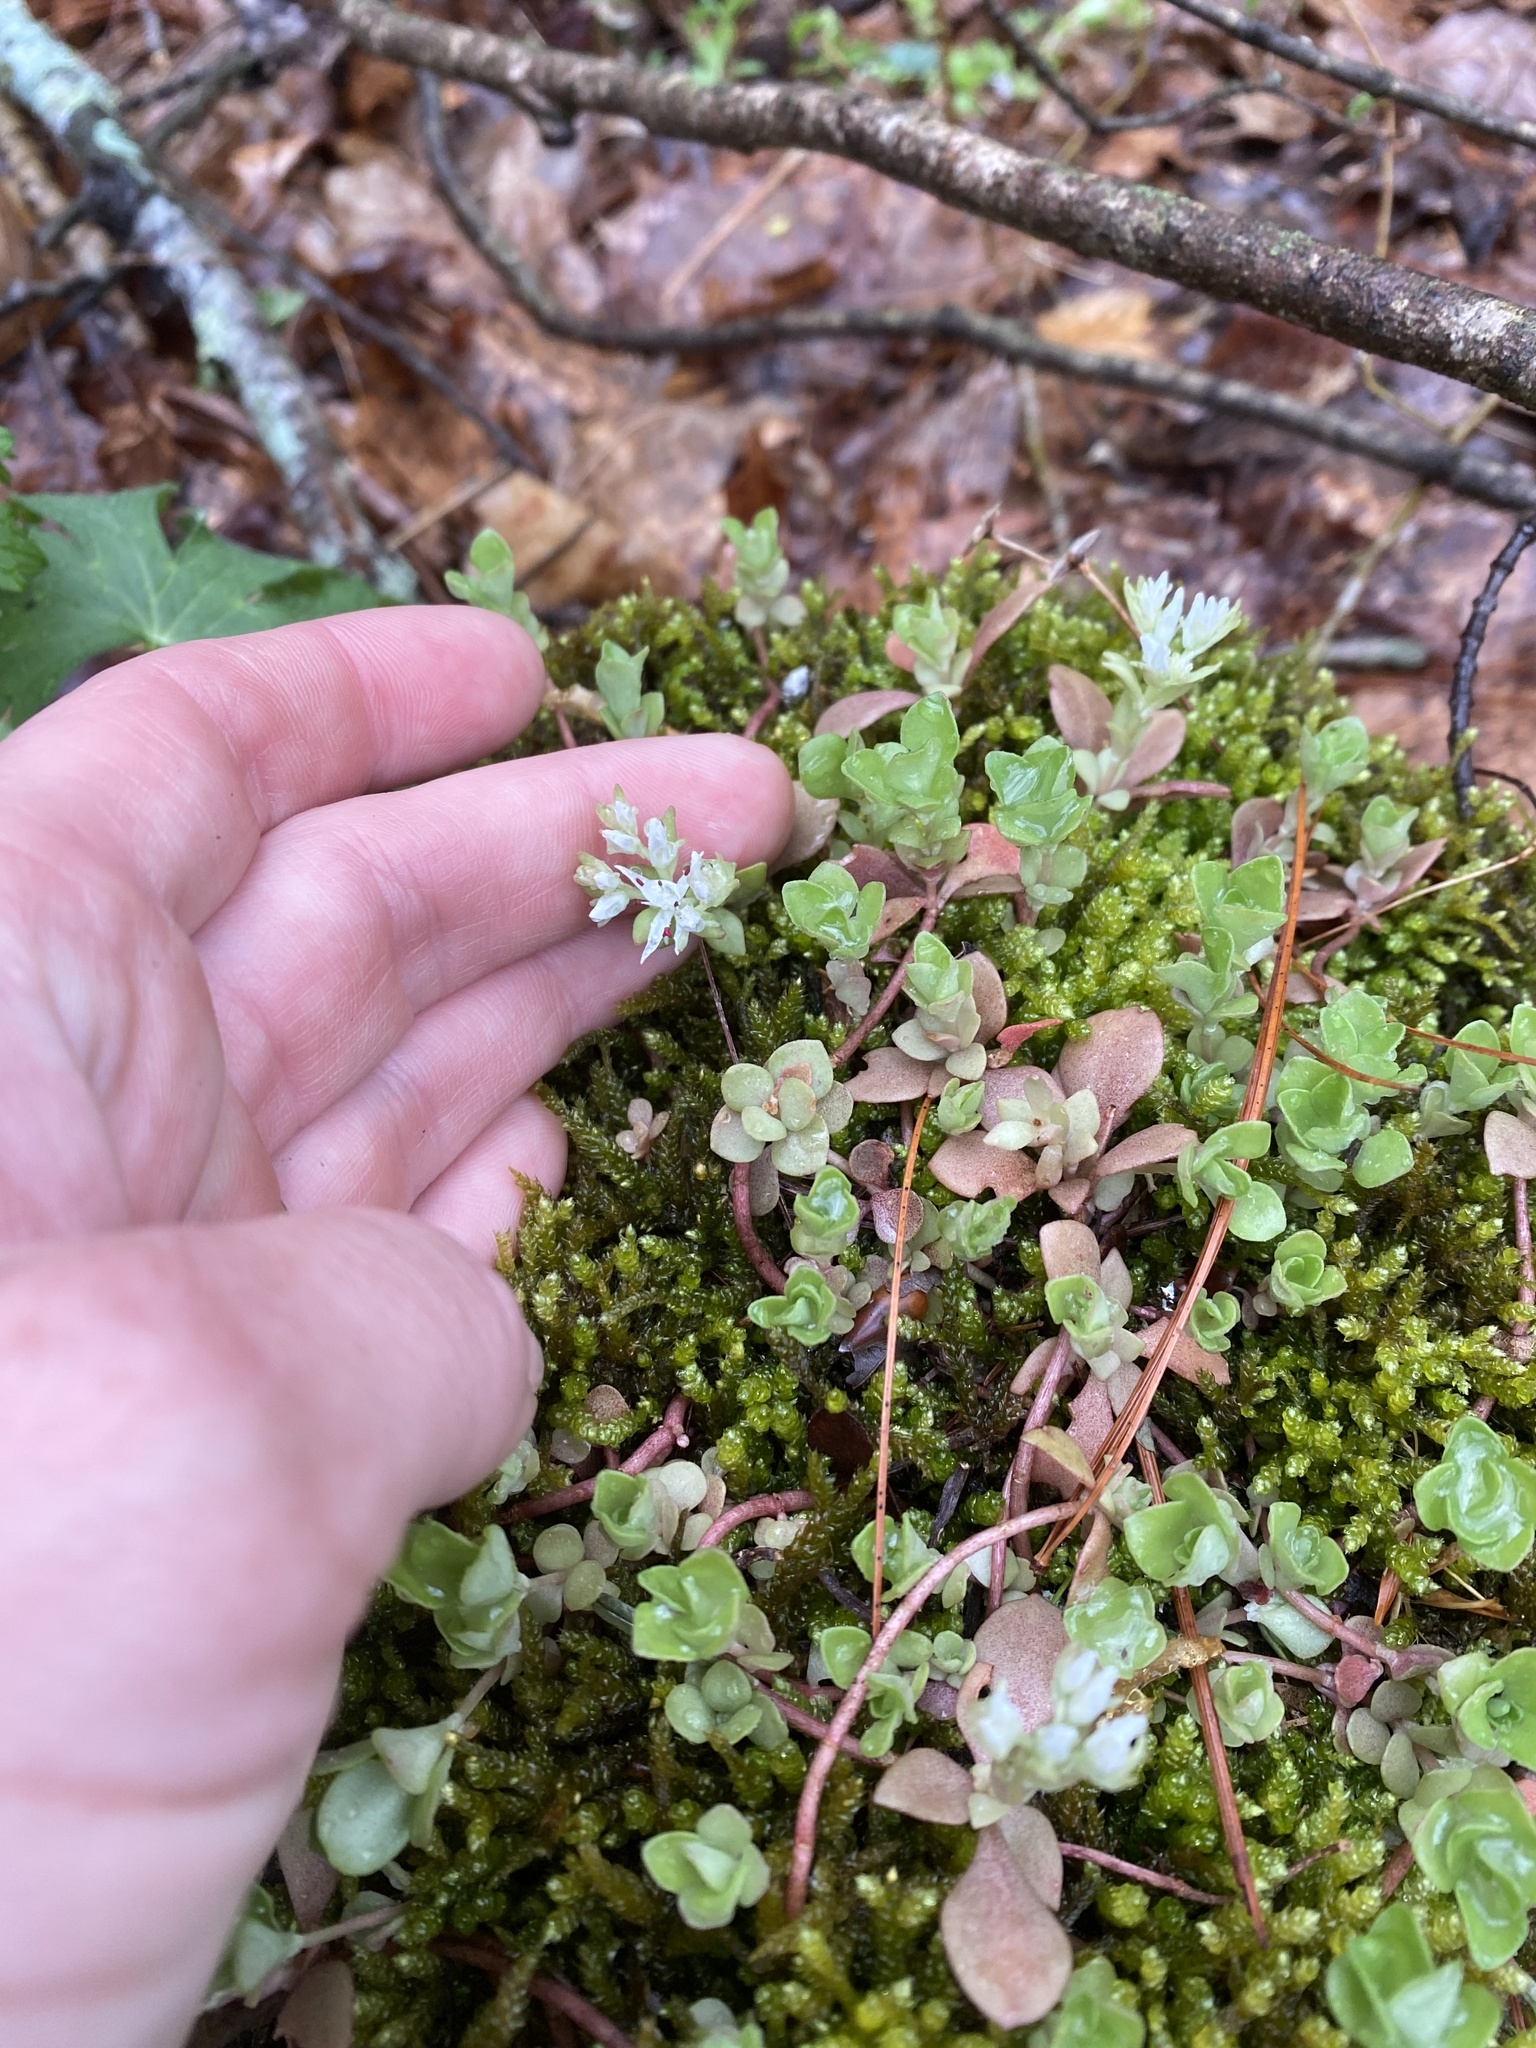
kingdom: Plantae
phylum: Tracheophyta
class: Magnoliopsida
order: Saxifragales
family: Crassulaceae
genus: Sedum
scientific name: Sedum ternatum
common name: Wild stonecrop
